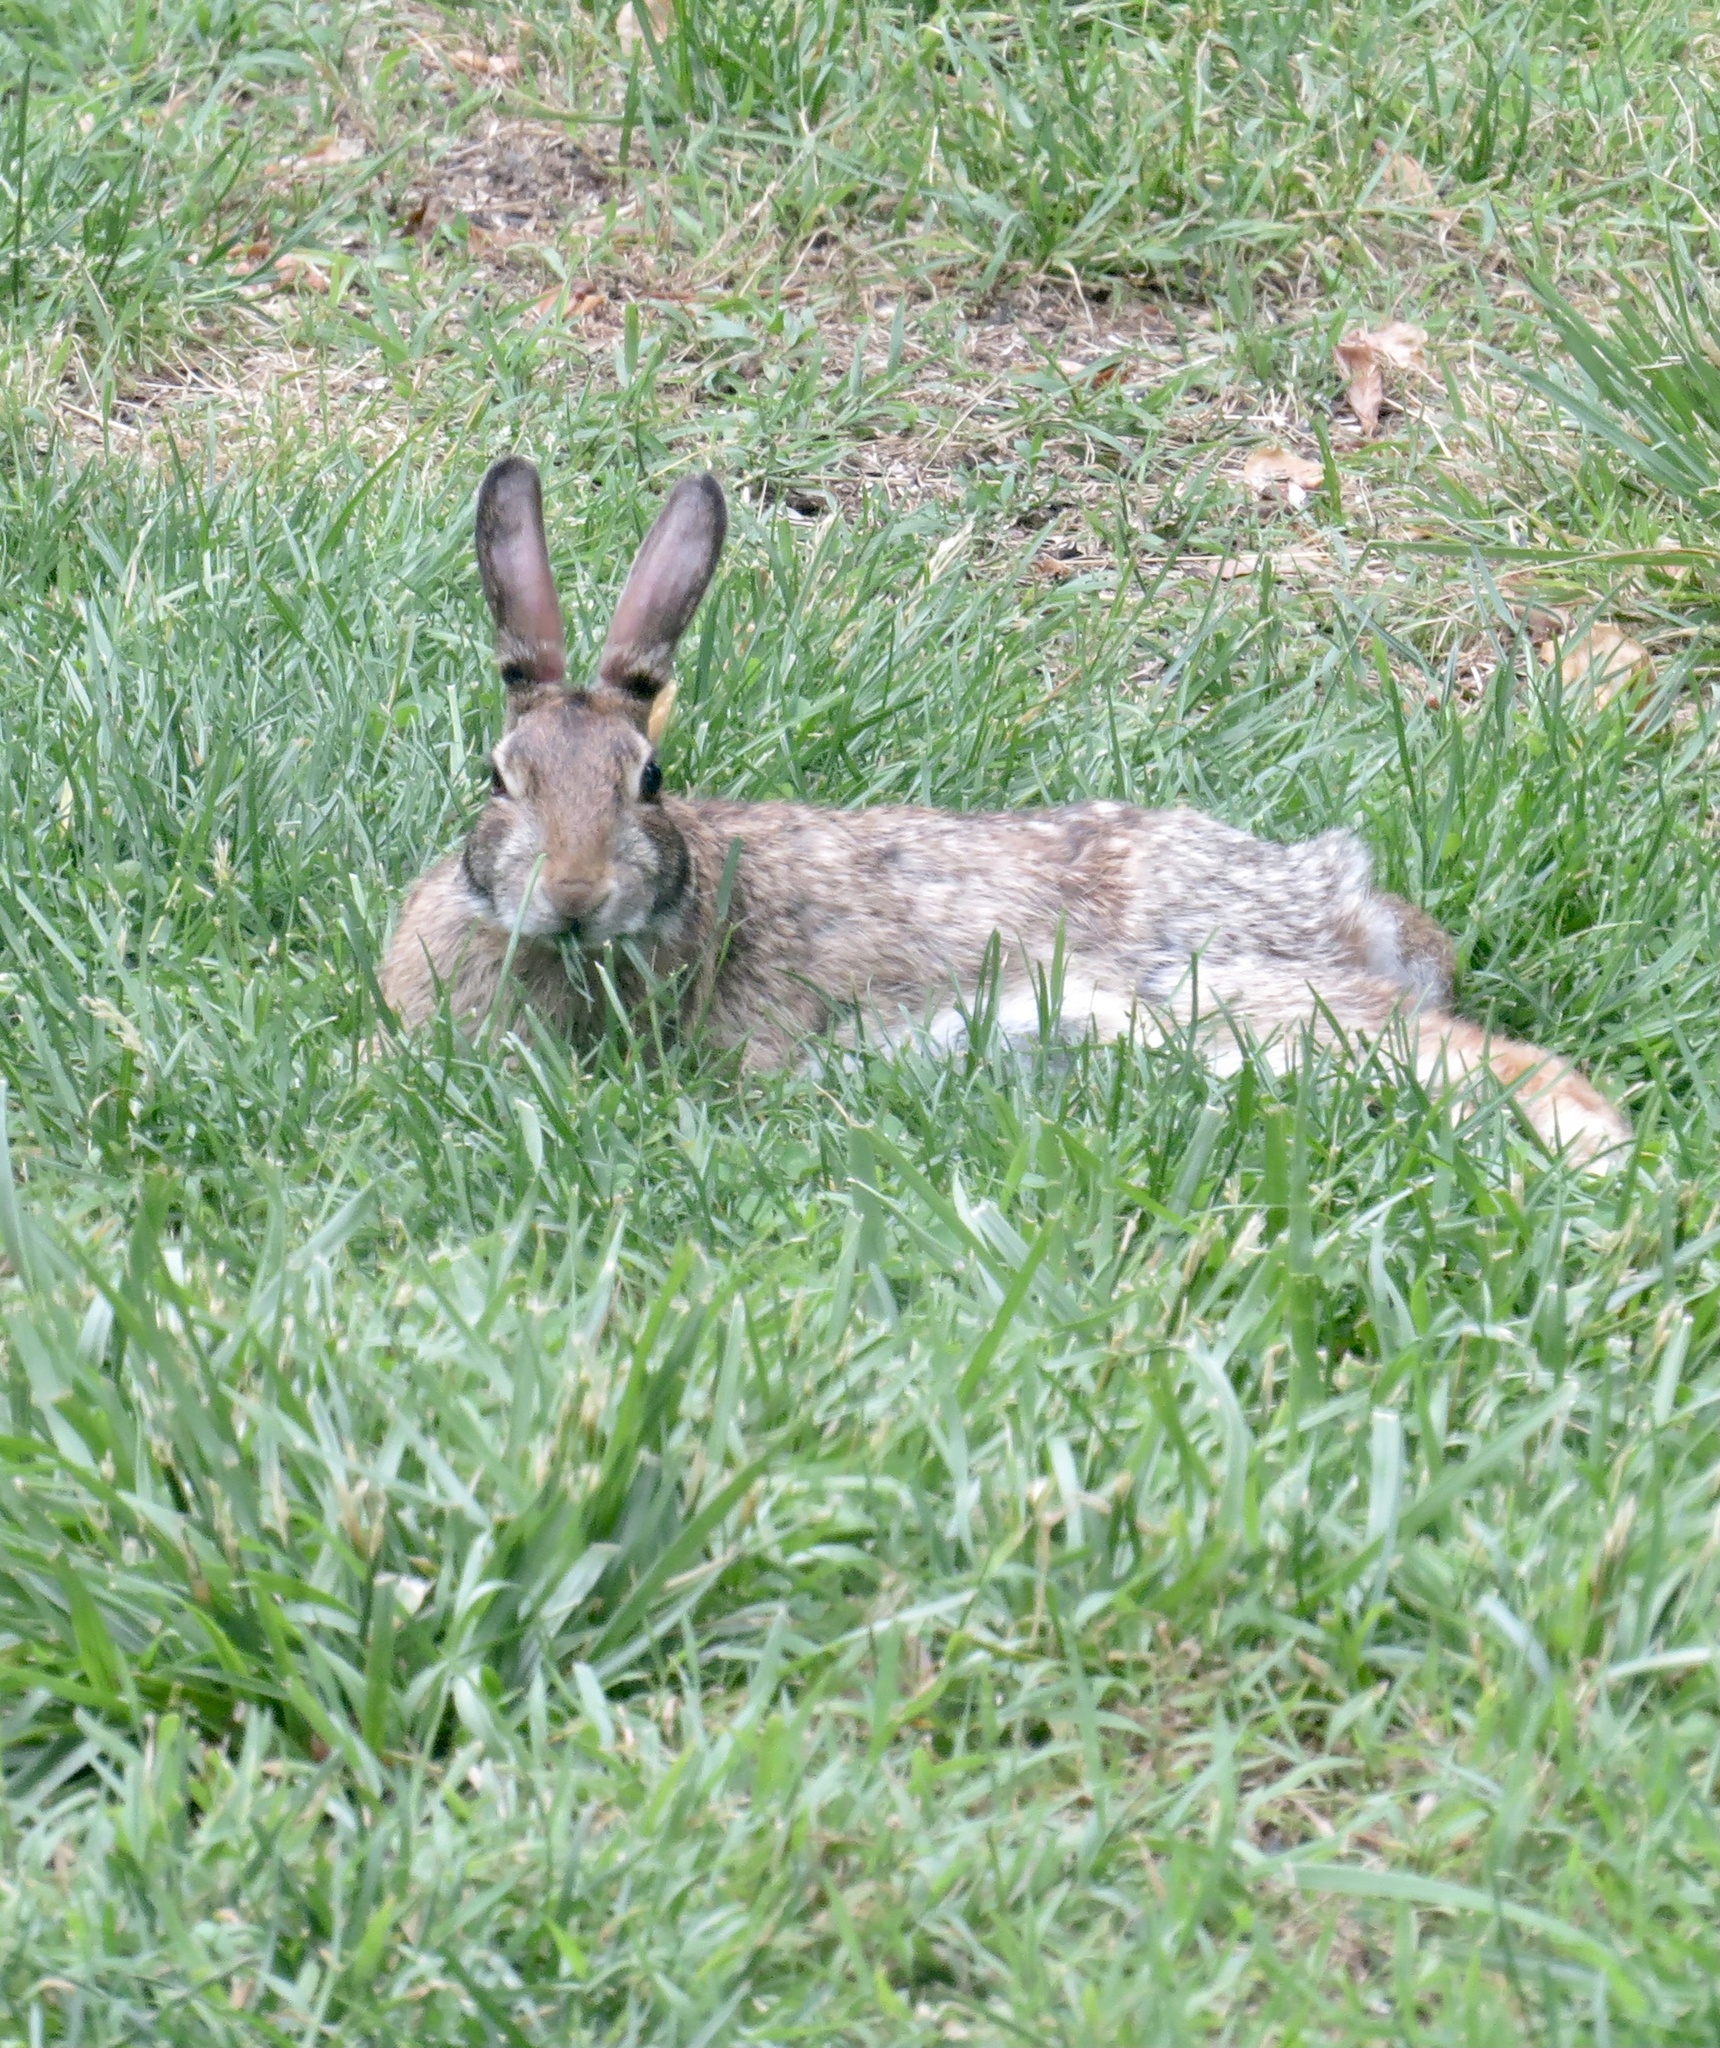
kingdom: Animalia
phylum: Chordata
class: Mammalia
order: Lagomorpha
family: Leporidae
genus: Sylvilagus
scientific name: Sylvilagus floridanus
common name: Eastern cottontail
